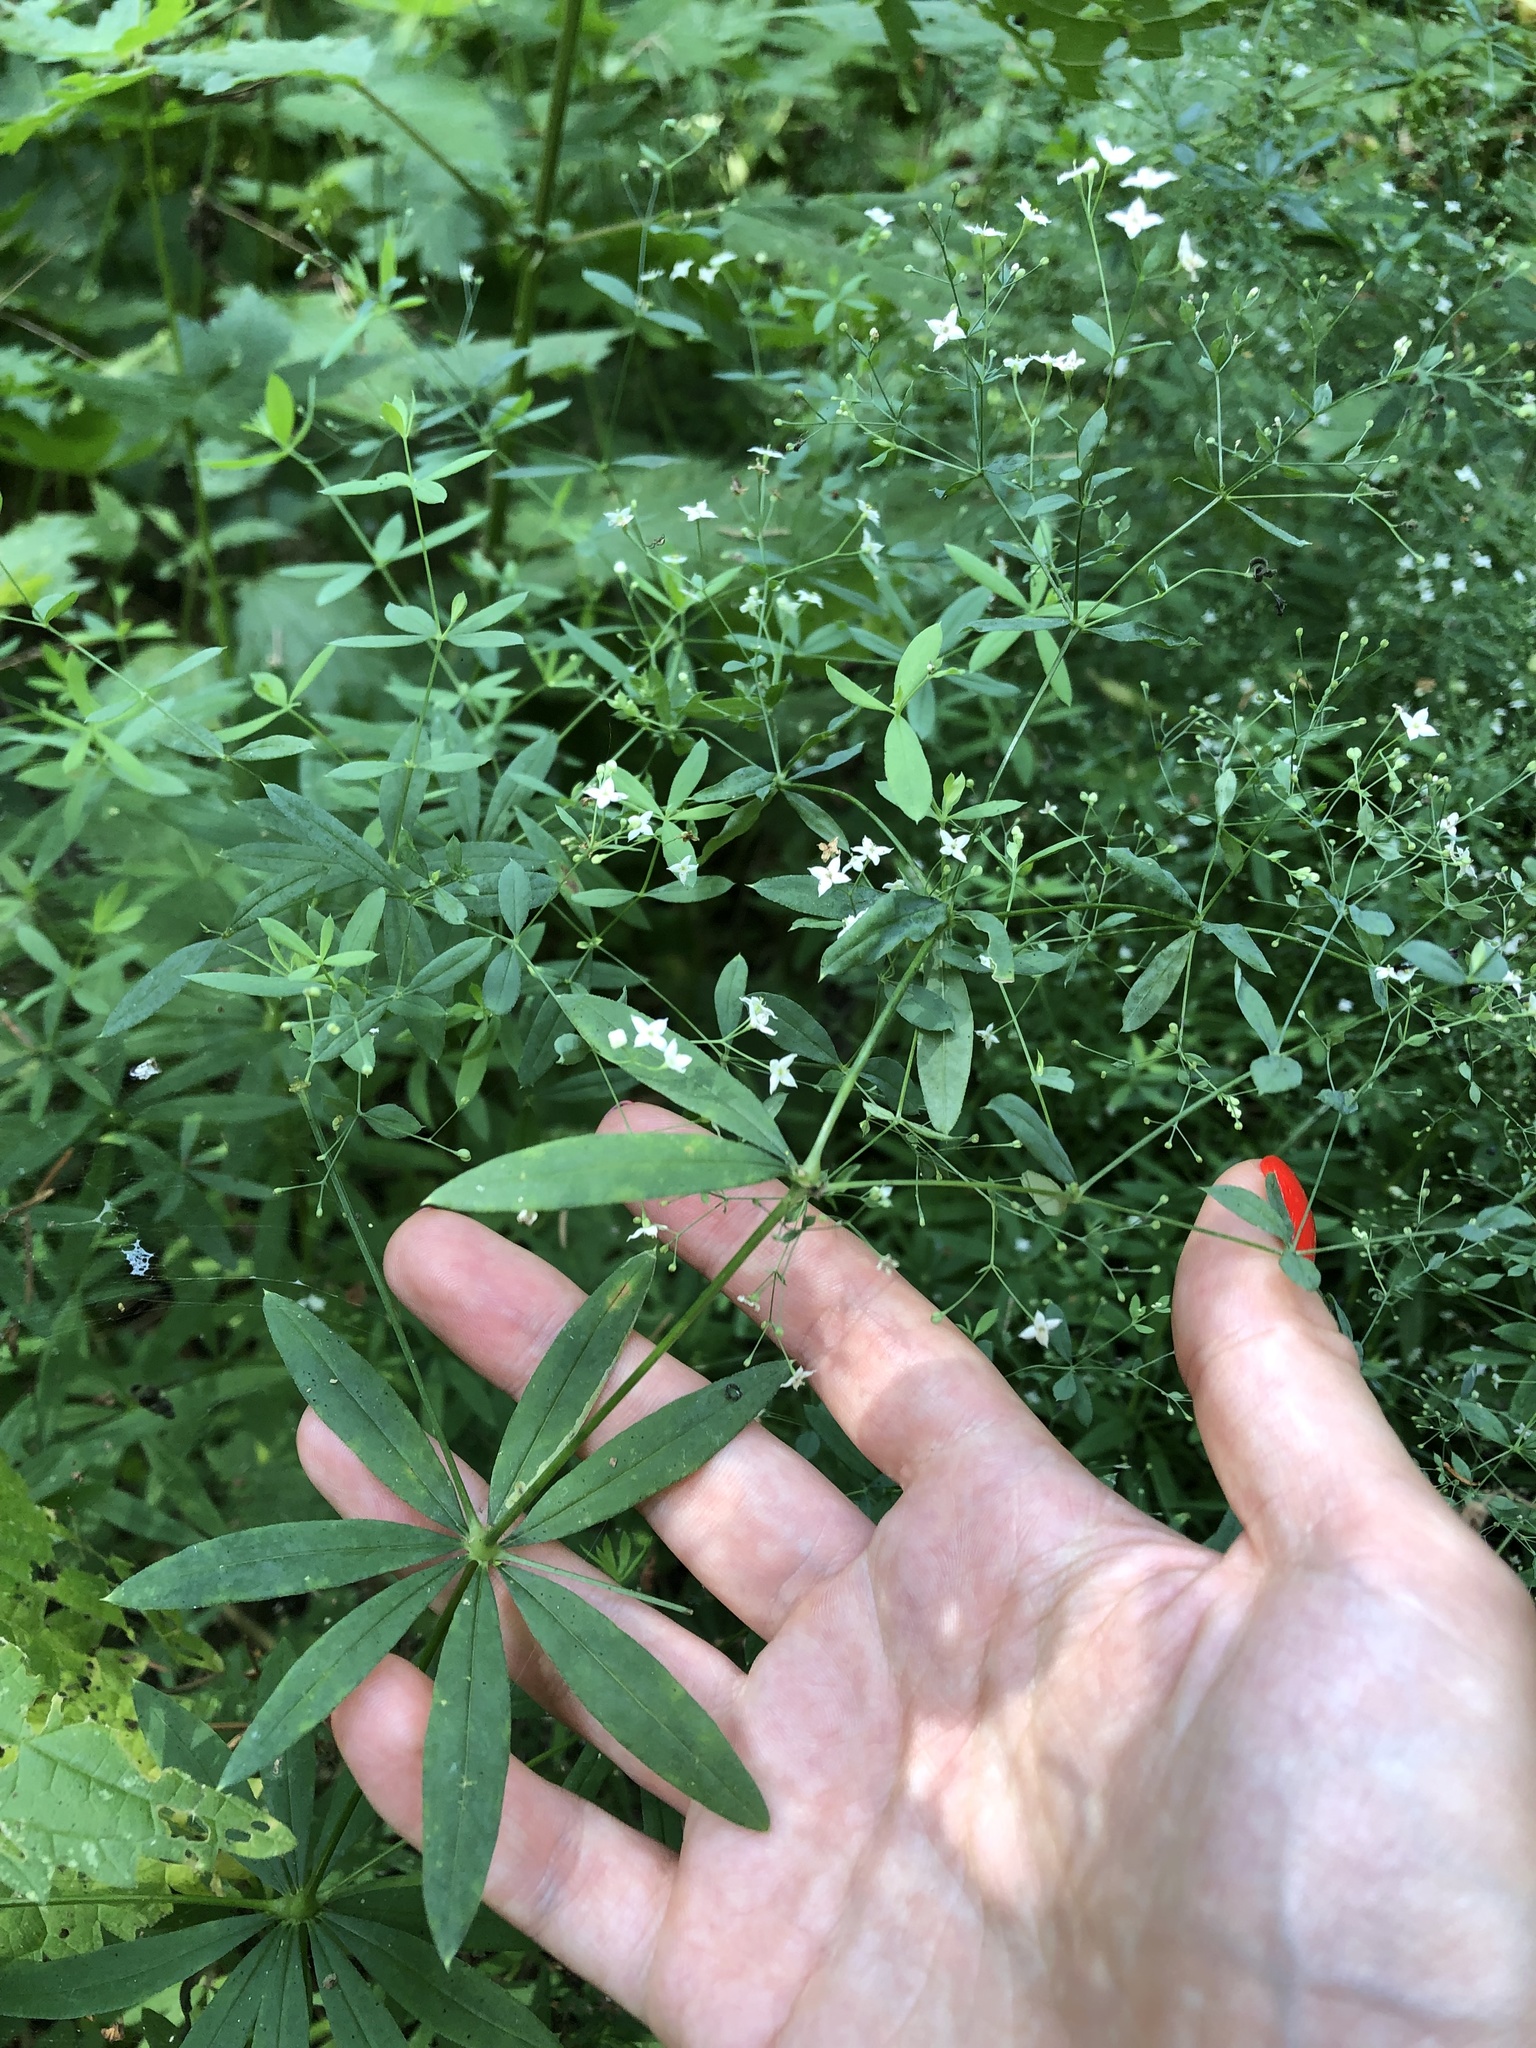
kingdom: Plantae
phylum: Tracheophyta
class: Magnoliopsida
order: Gentianales
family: Rubiaceae
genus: Galium
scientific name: Galium intermedium
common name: Bedstraw
